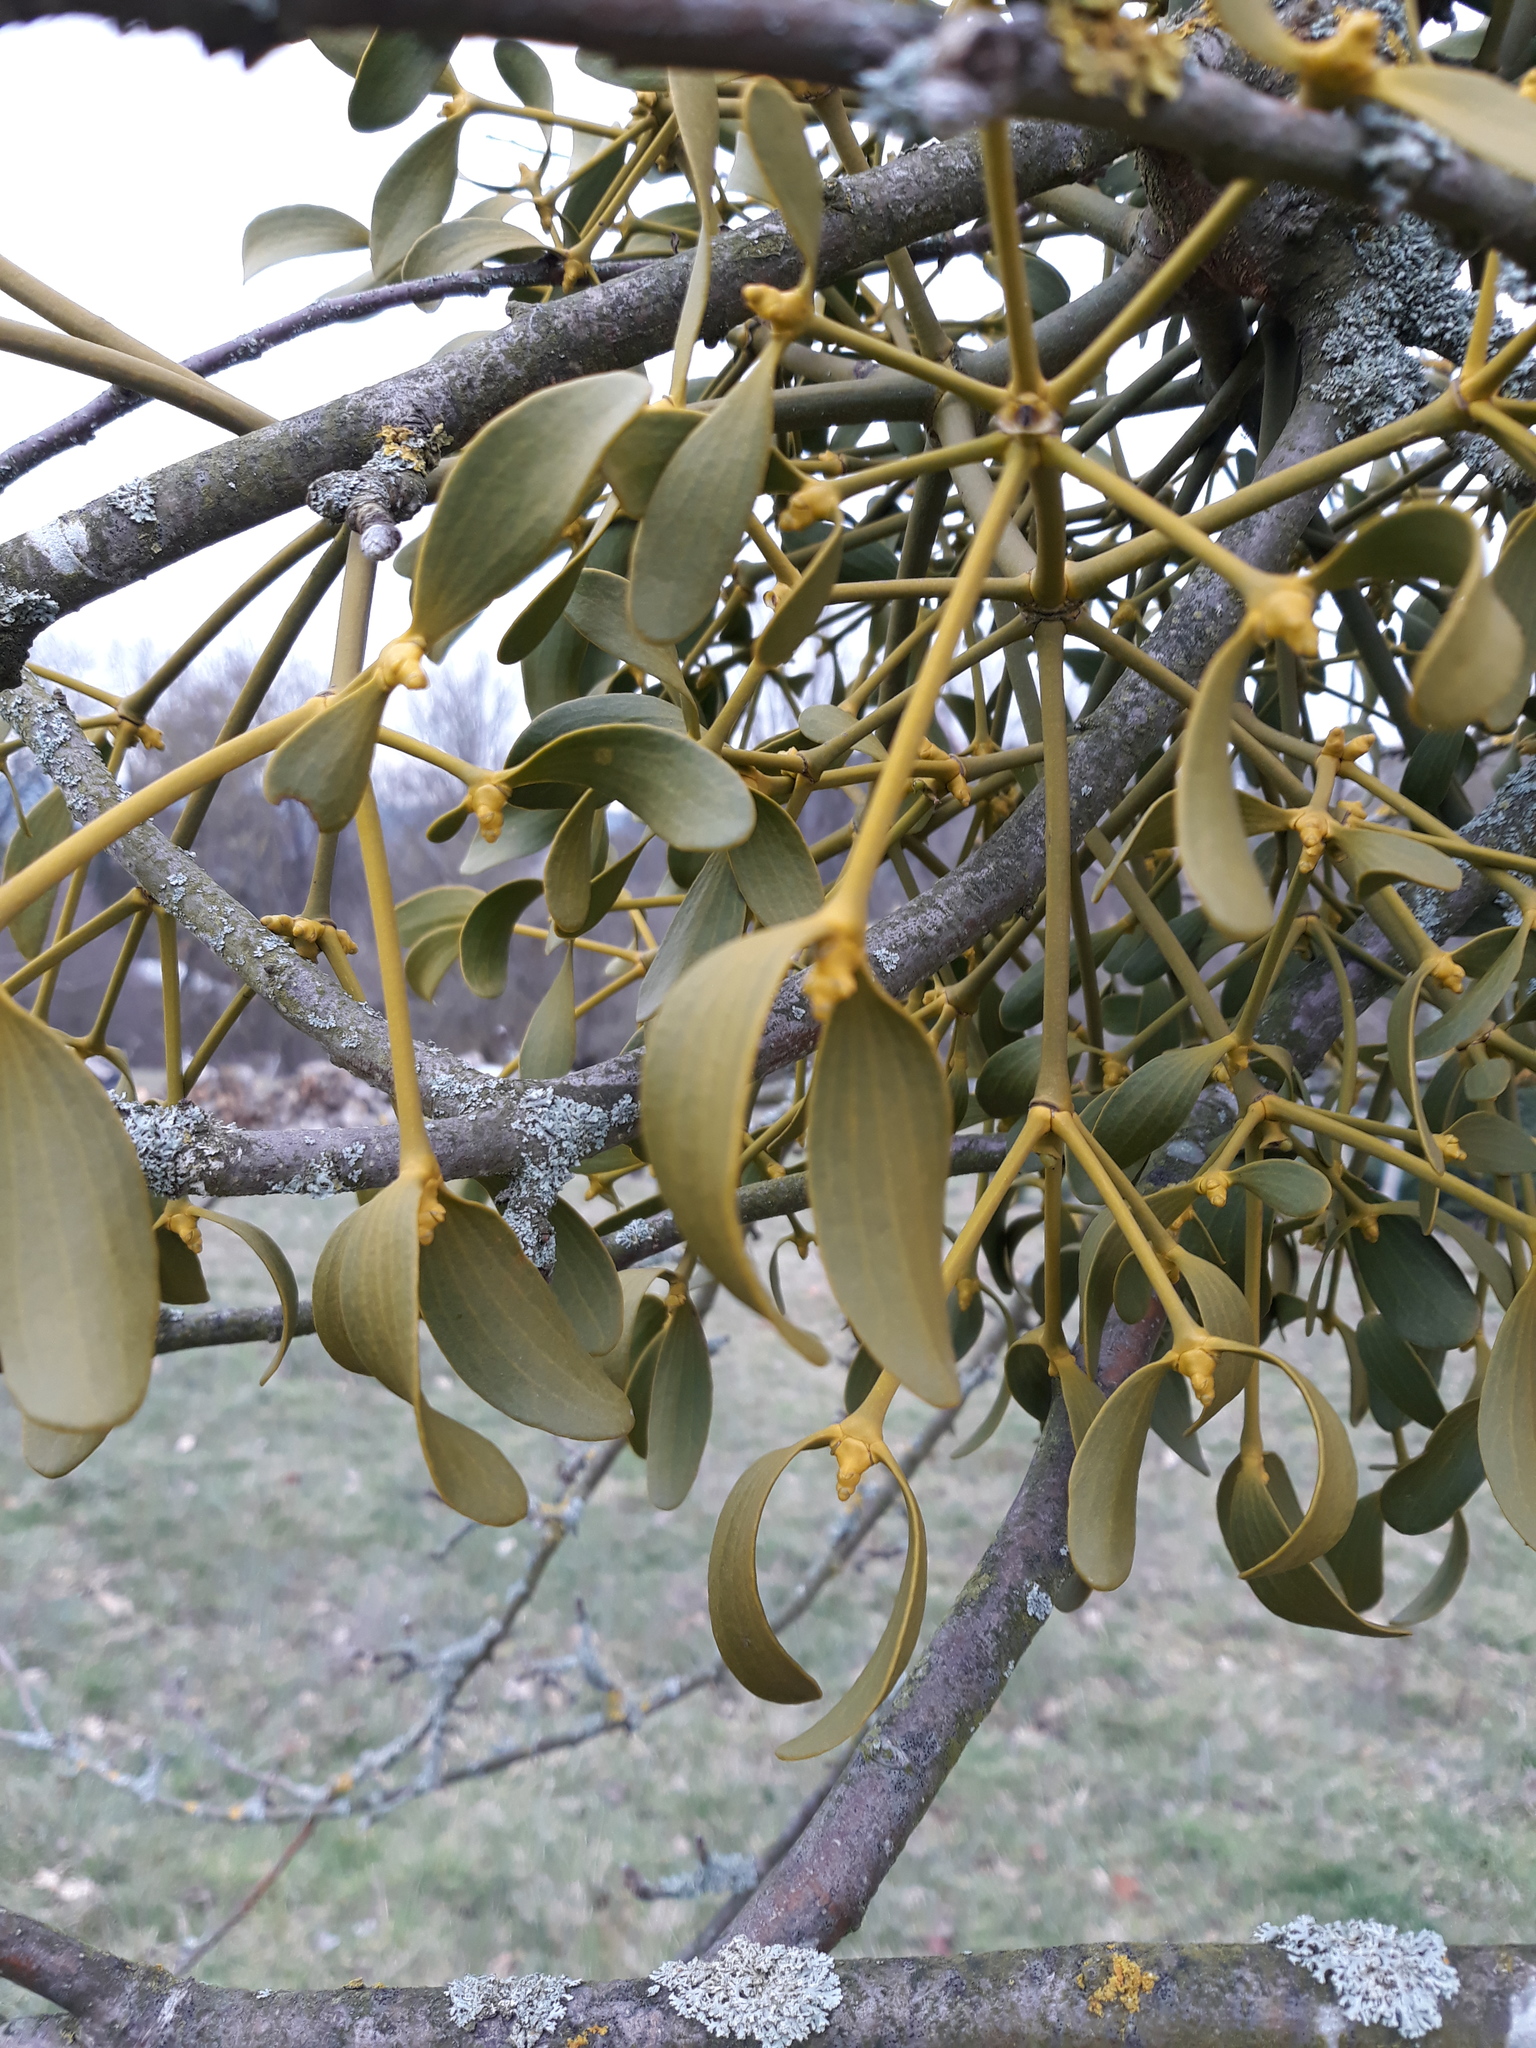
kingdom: Plantae
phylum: Tracheophyta
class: Magnoliopsida
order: Santalales
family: Viscaceae
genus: Viscum
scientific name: Viscum album
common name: Mistletoe
